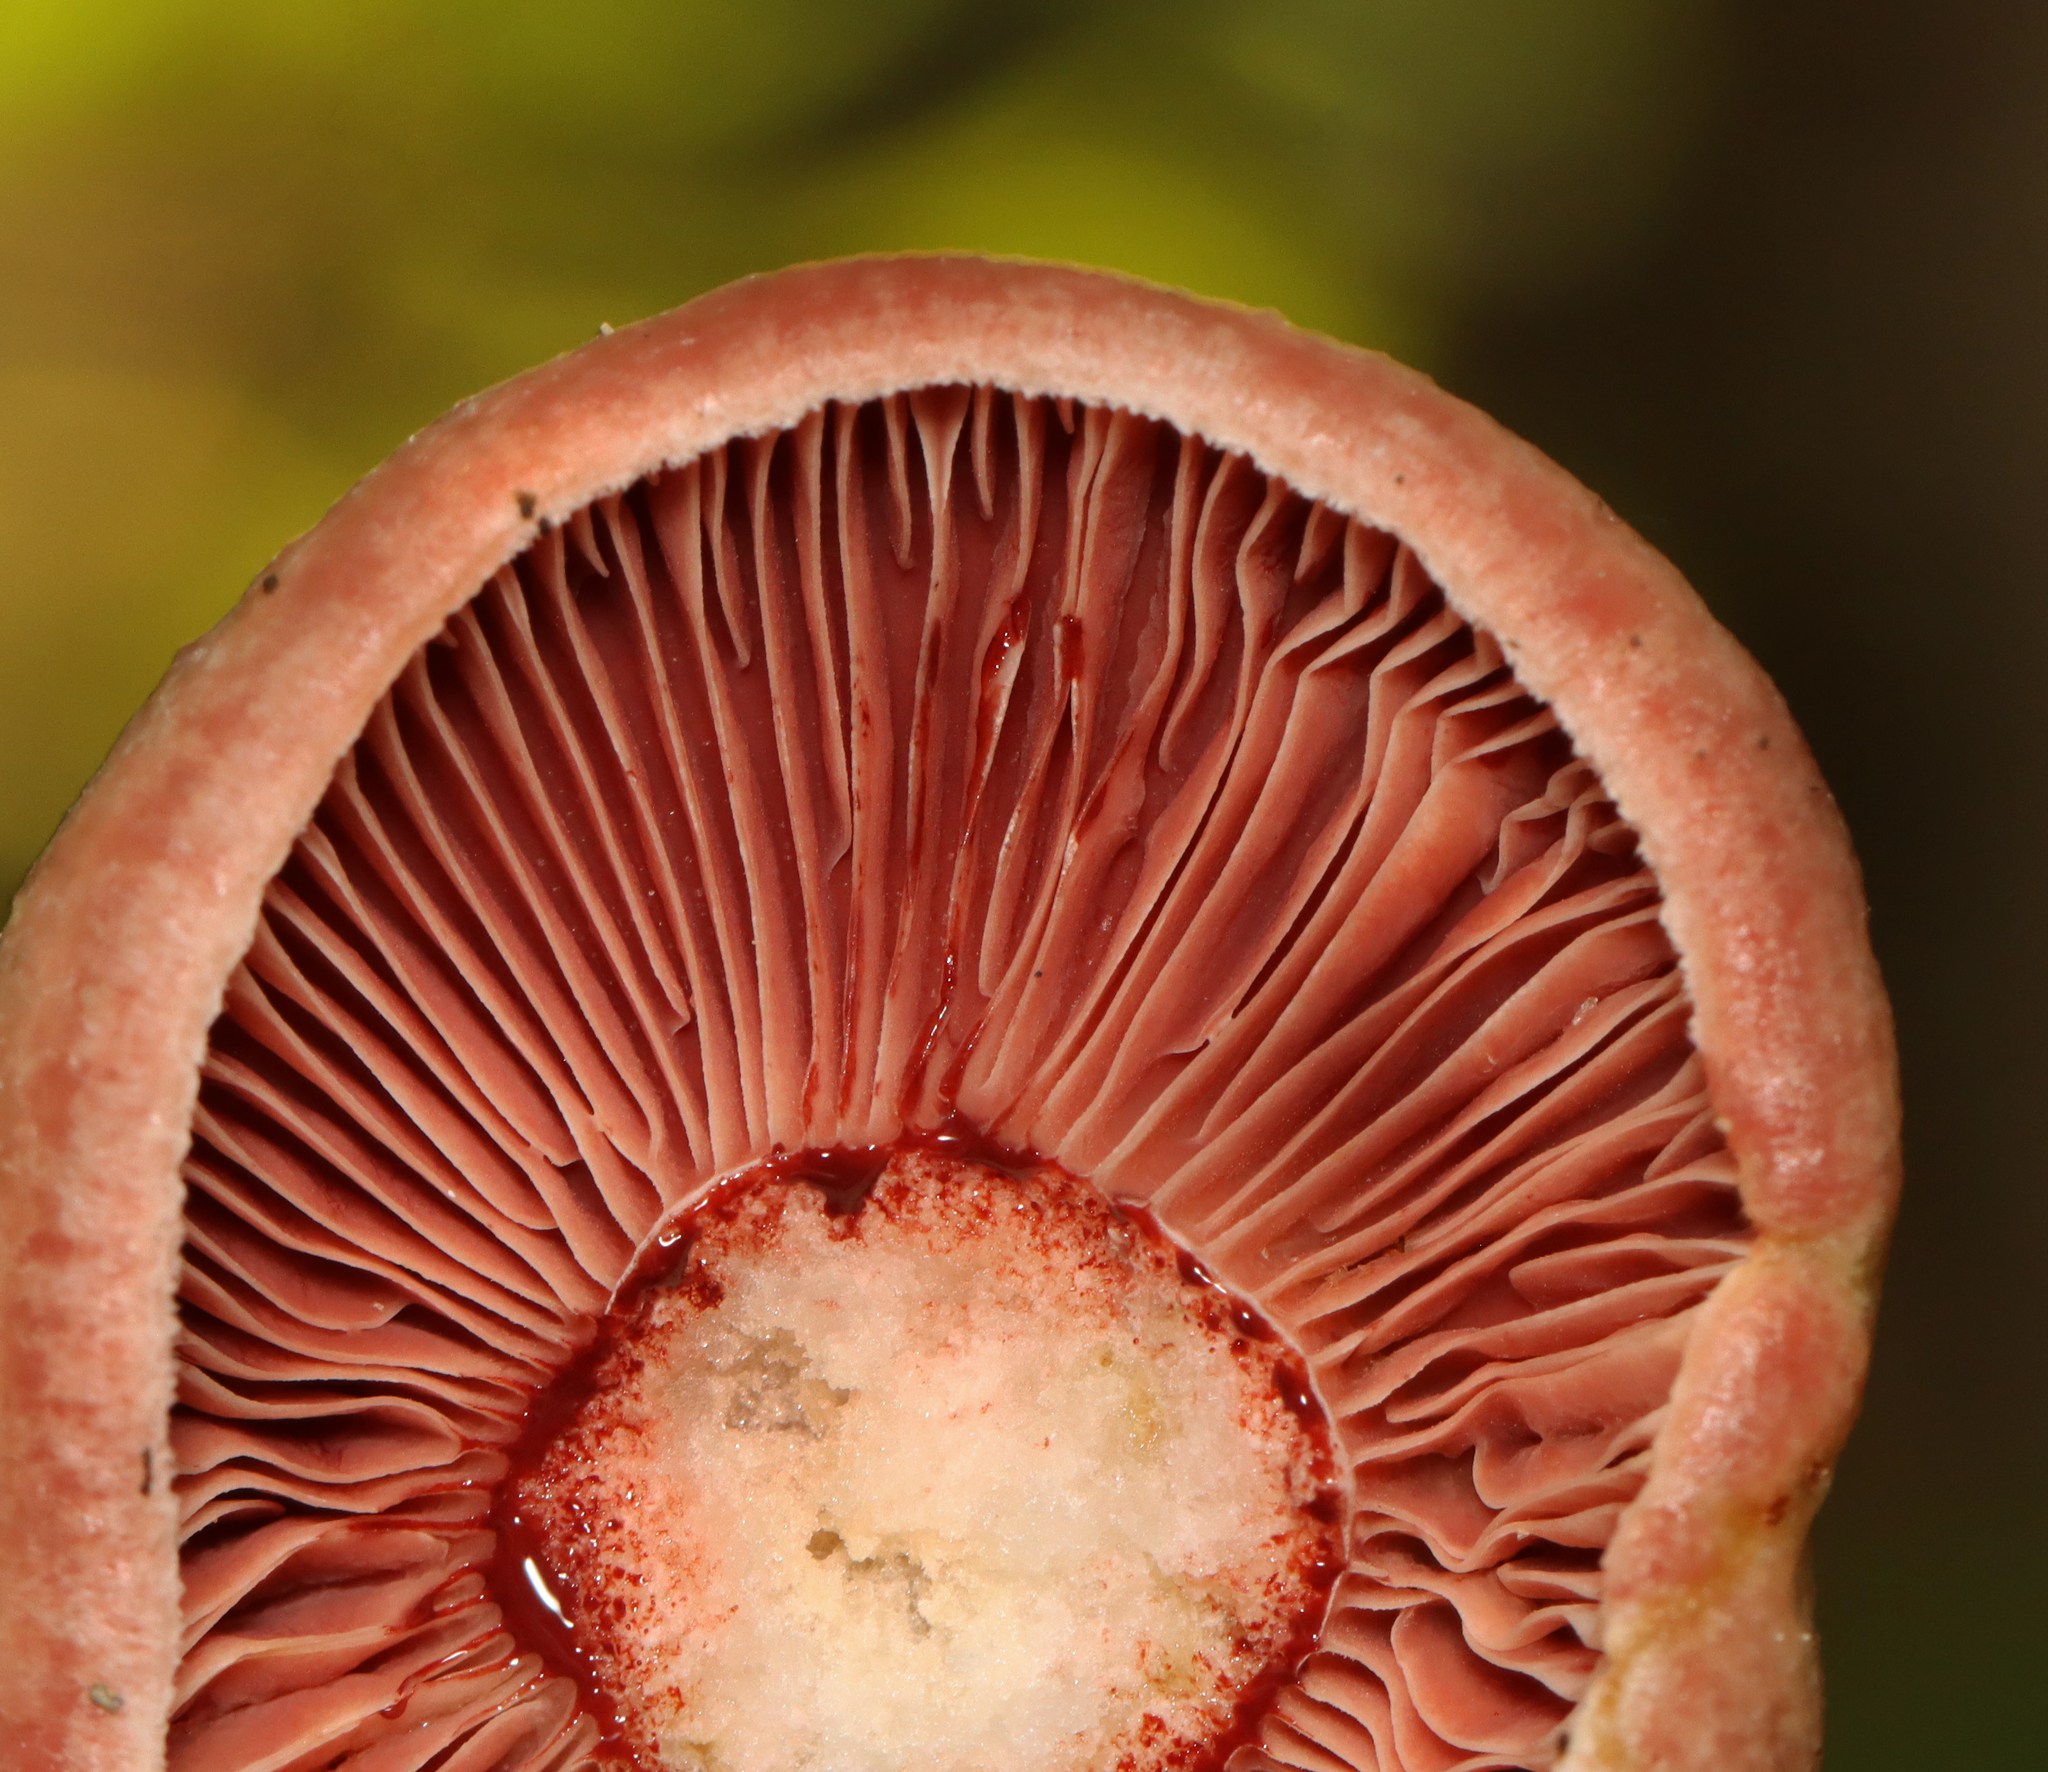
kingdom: Fungi
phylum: Basidiomycota
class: Agaricomycetes
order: Russulales
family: Russulaceae
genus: Lactarius
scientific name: Lactarius subpurpureus
